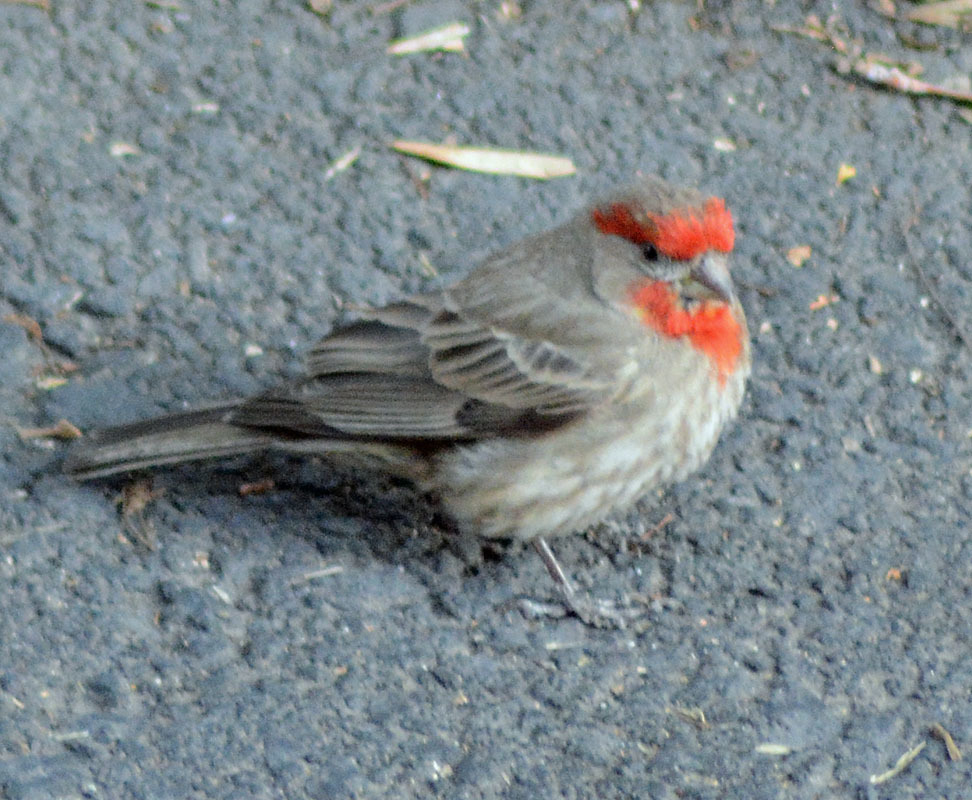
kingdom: Animalia
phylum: Chordata
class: Aves
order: Passeriformes
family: Fringillidae
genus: Haemorhous
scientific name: Haemorhous mexicanus
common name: House finch
